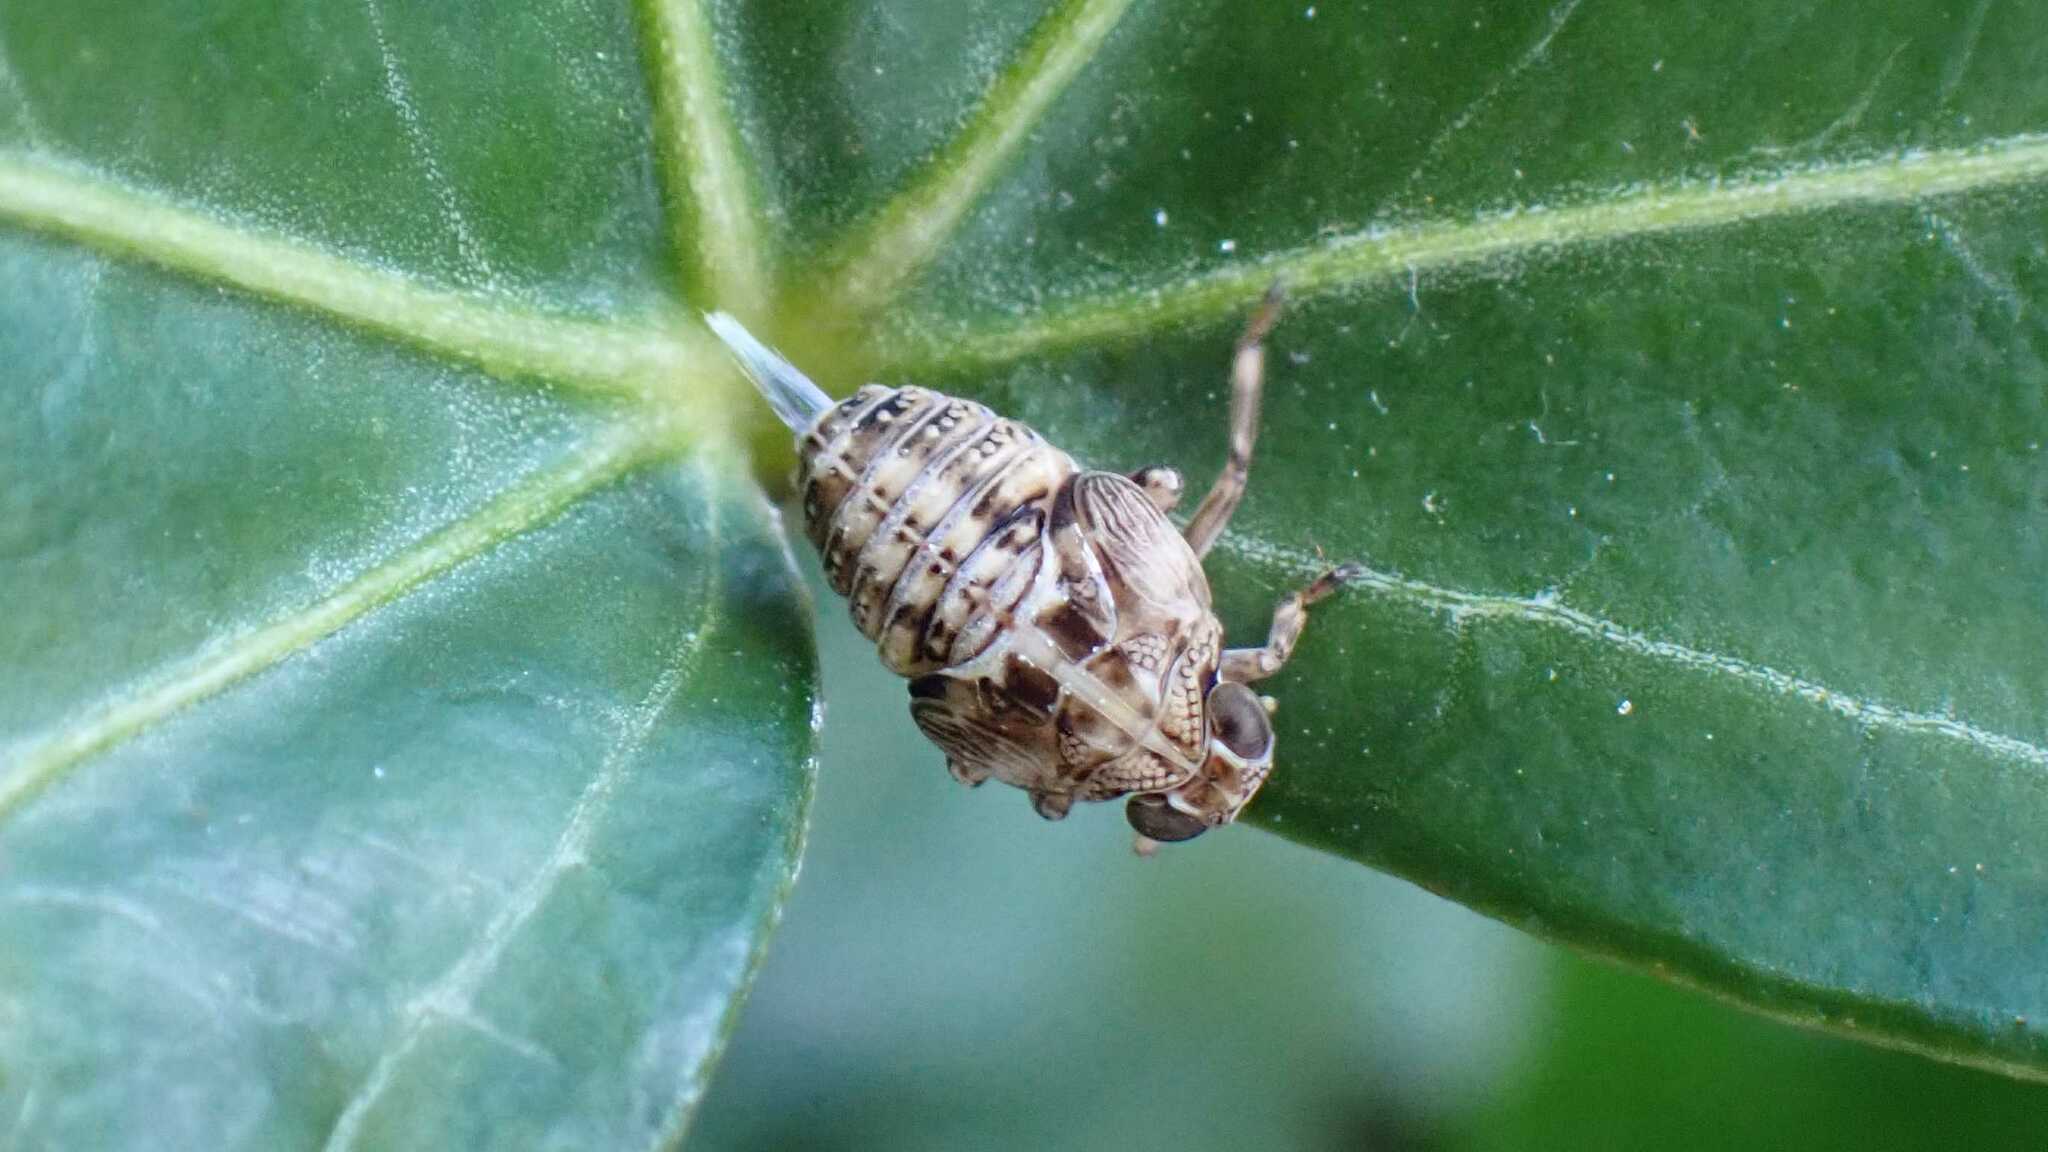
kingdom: Animalia
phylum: Arthropoda
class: Insecta
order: Hemiptera
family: Issidae
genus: Issus
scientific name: Issus muscaeformis
